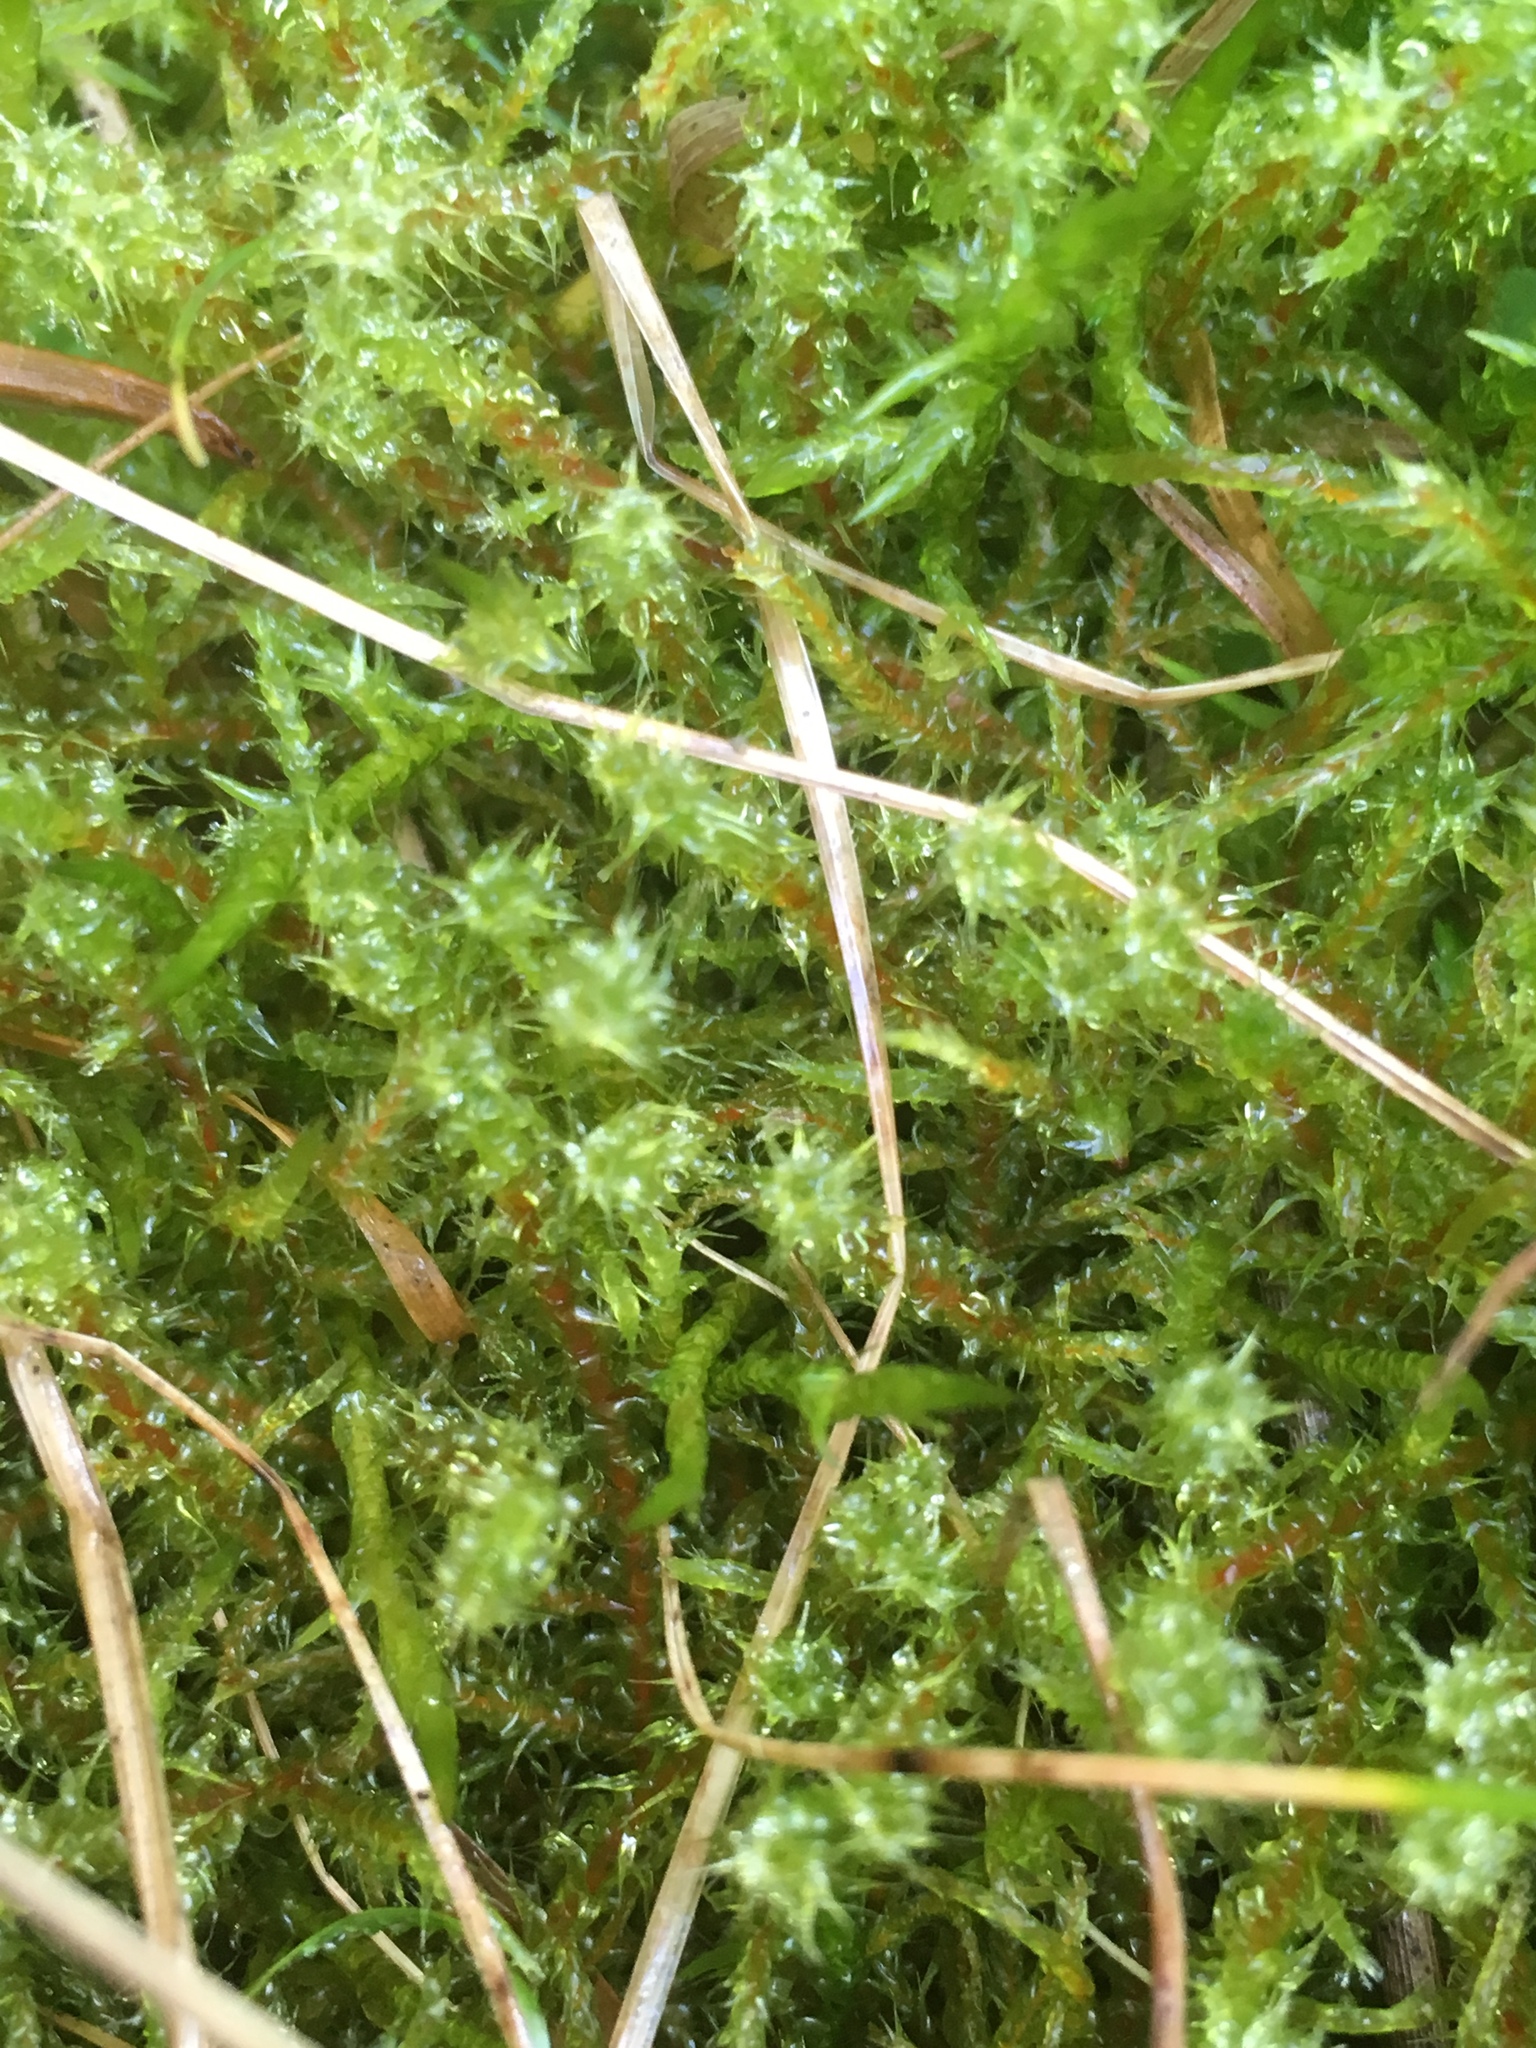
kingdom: Plantae
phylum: Bryophyta
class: Bryopsida
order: Hypnales
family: Hylocomiaceae
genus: Rhytidiadelphus
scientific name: Rhytidiadelphus squarrosus
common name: Springy turf-moss
